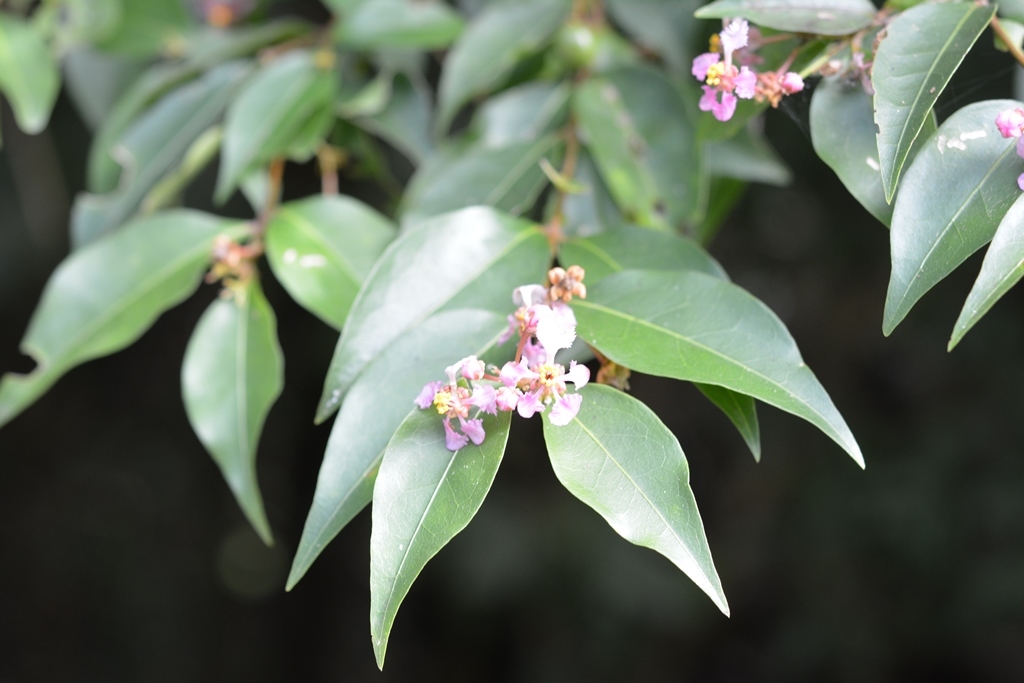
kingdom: Plantae
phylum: Tracheophyta
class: Magnoliopsida
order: Malpighiales
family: Malpighiaceae
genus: Malpighia
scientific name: Malpighia glabra
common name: Barbados cherry
